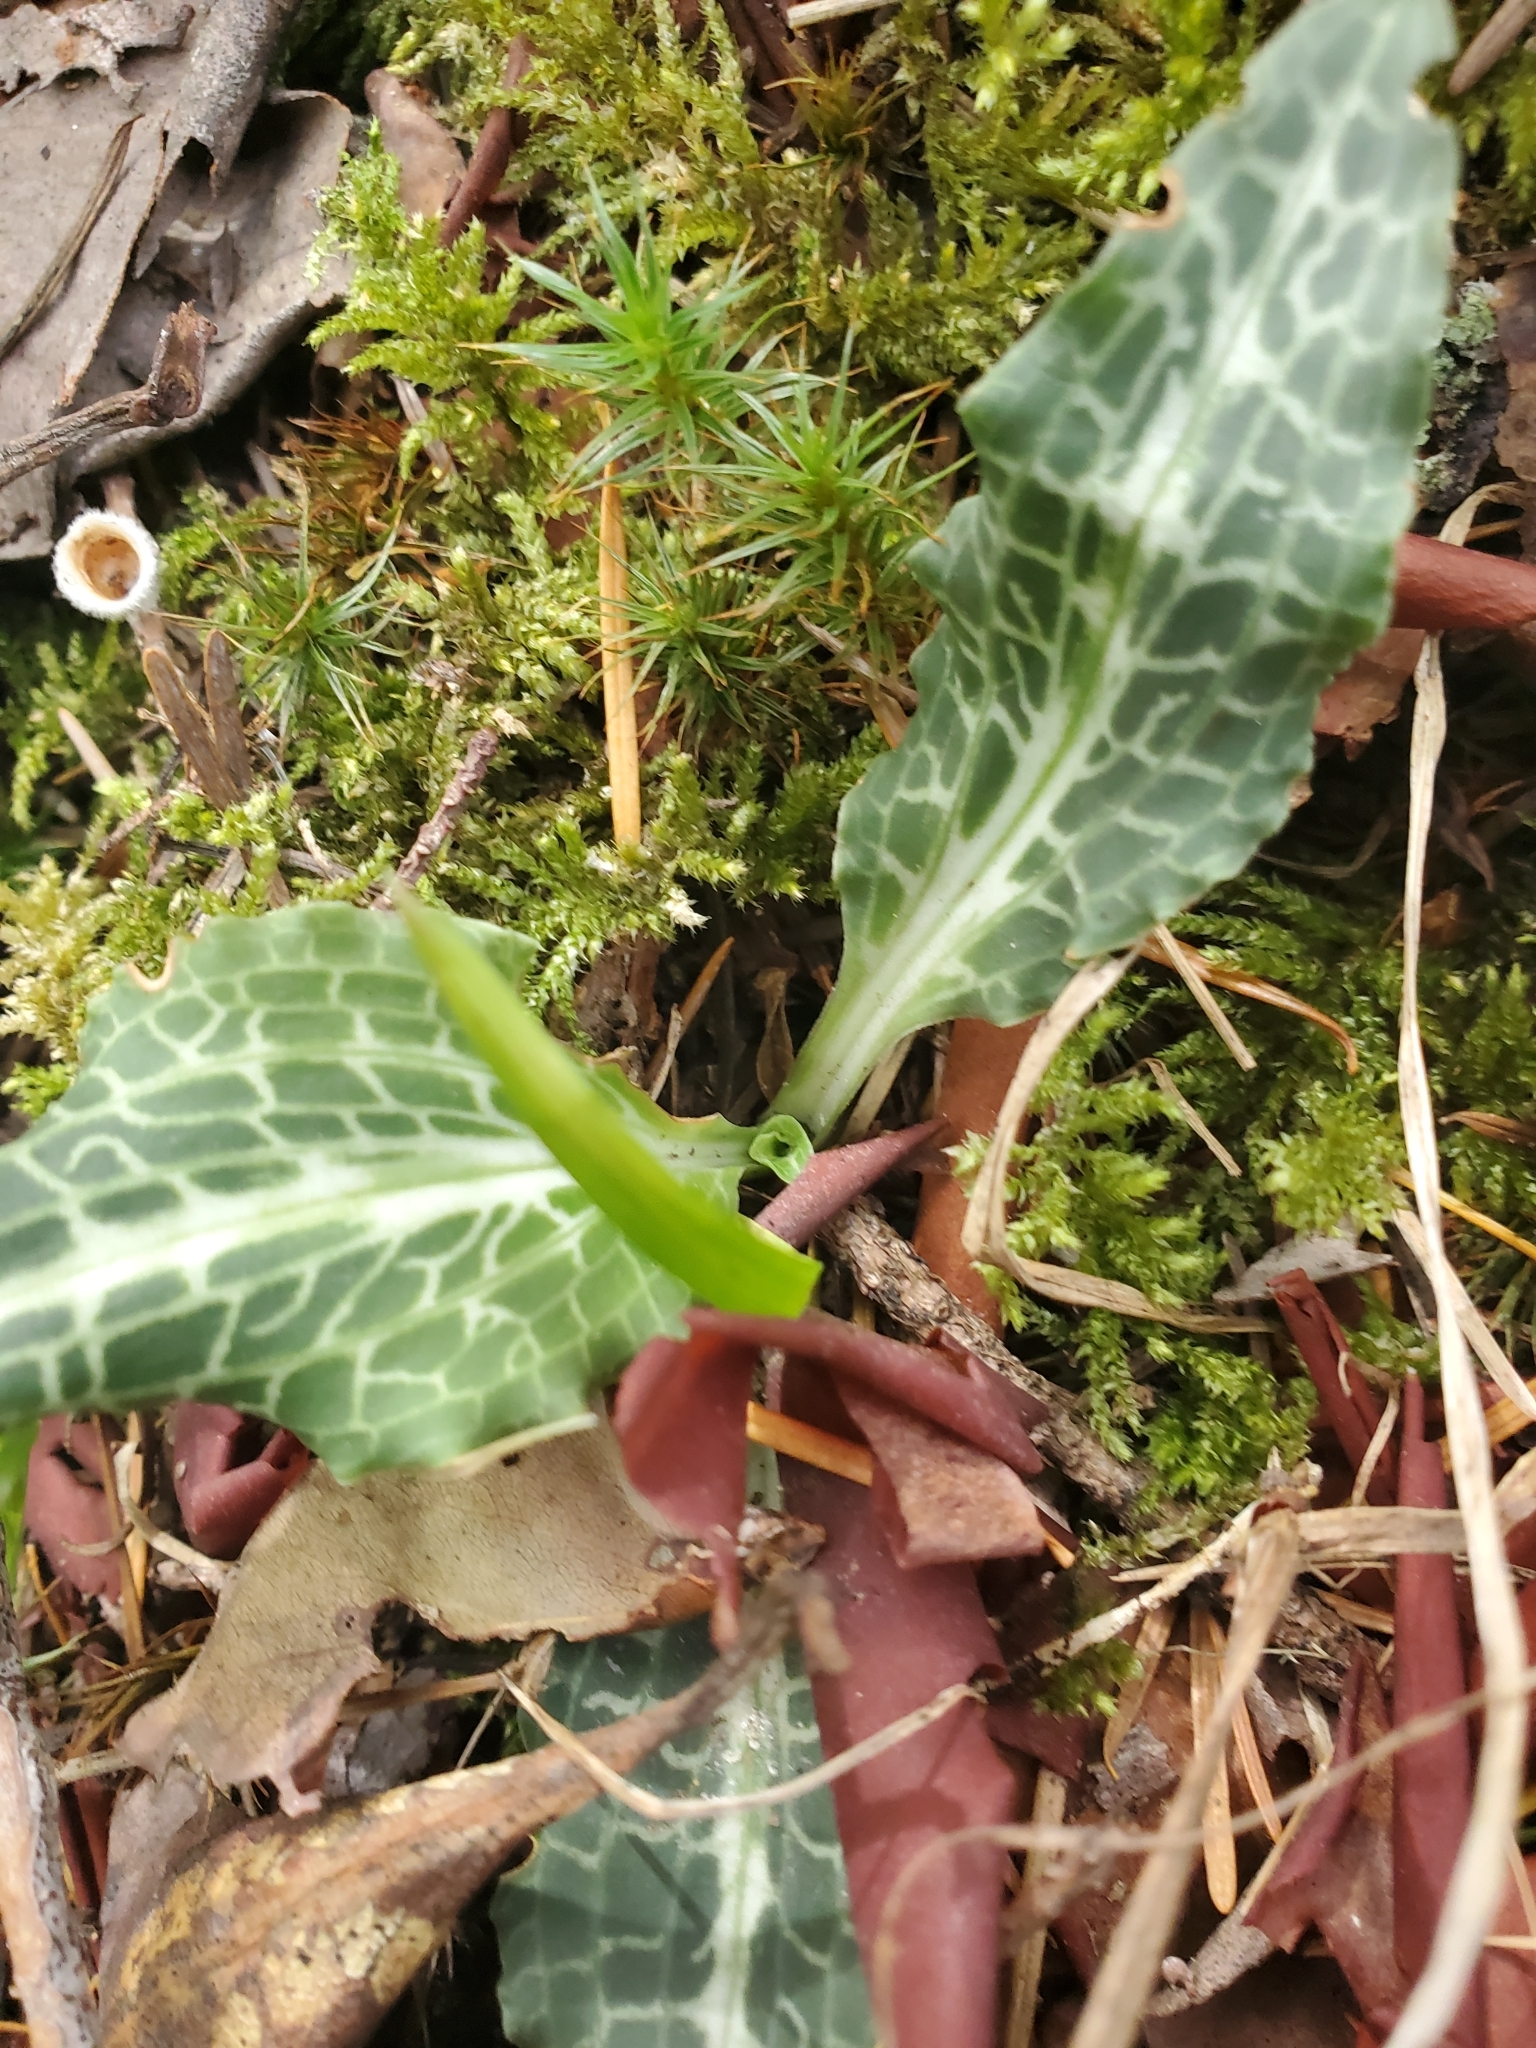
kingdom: Plantae
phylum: Tracheophyta
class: Liliopsida
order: Asparagales
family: Orchidaceae
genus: Goodyera
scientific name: Goodyera oblongifolia
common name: Giant rattlesnake-plantain
